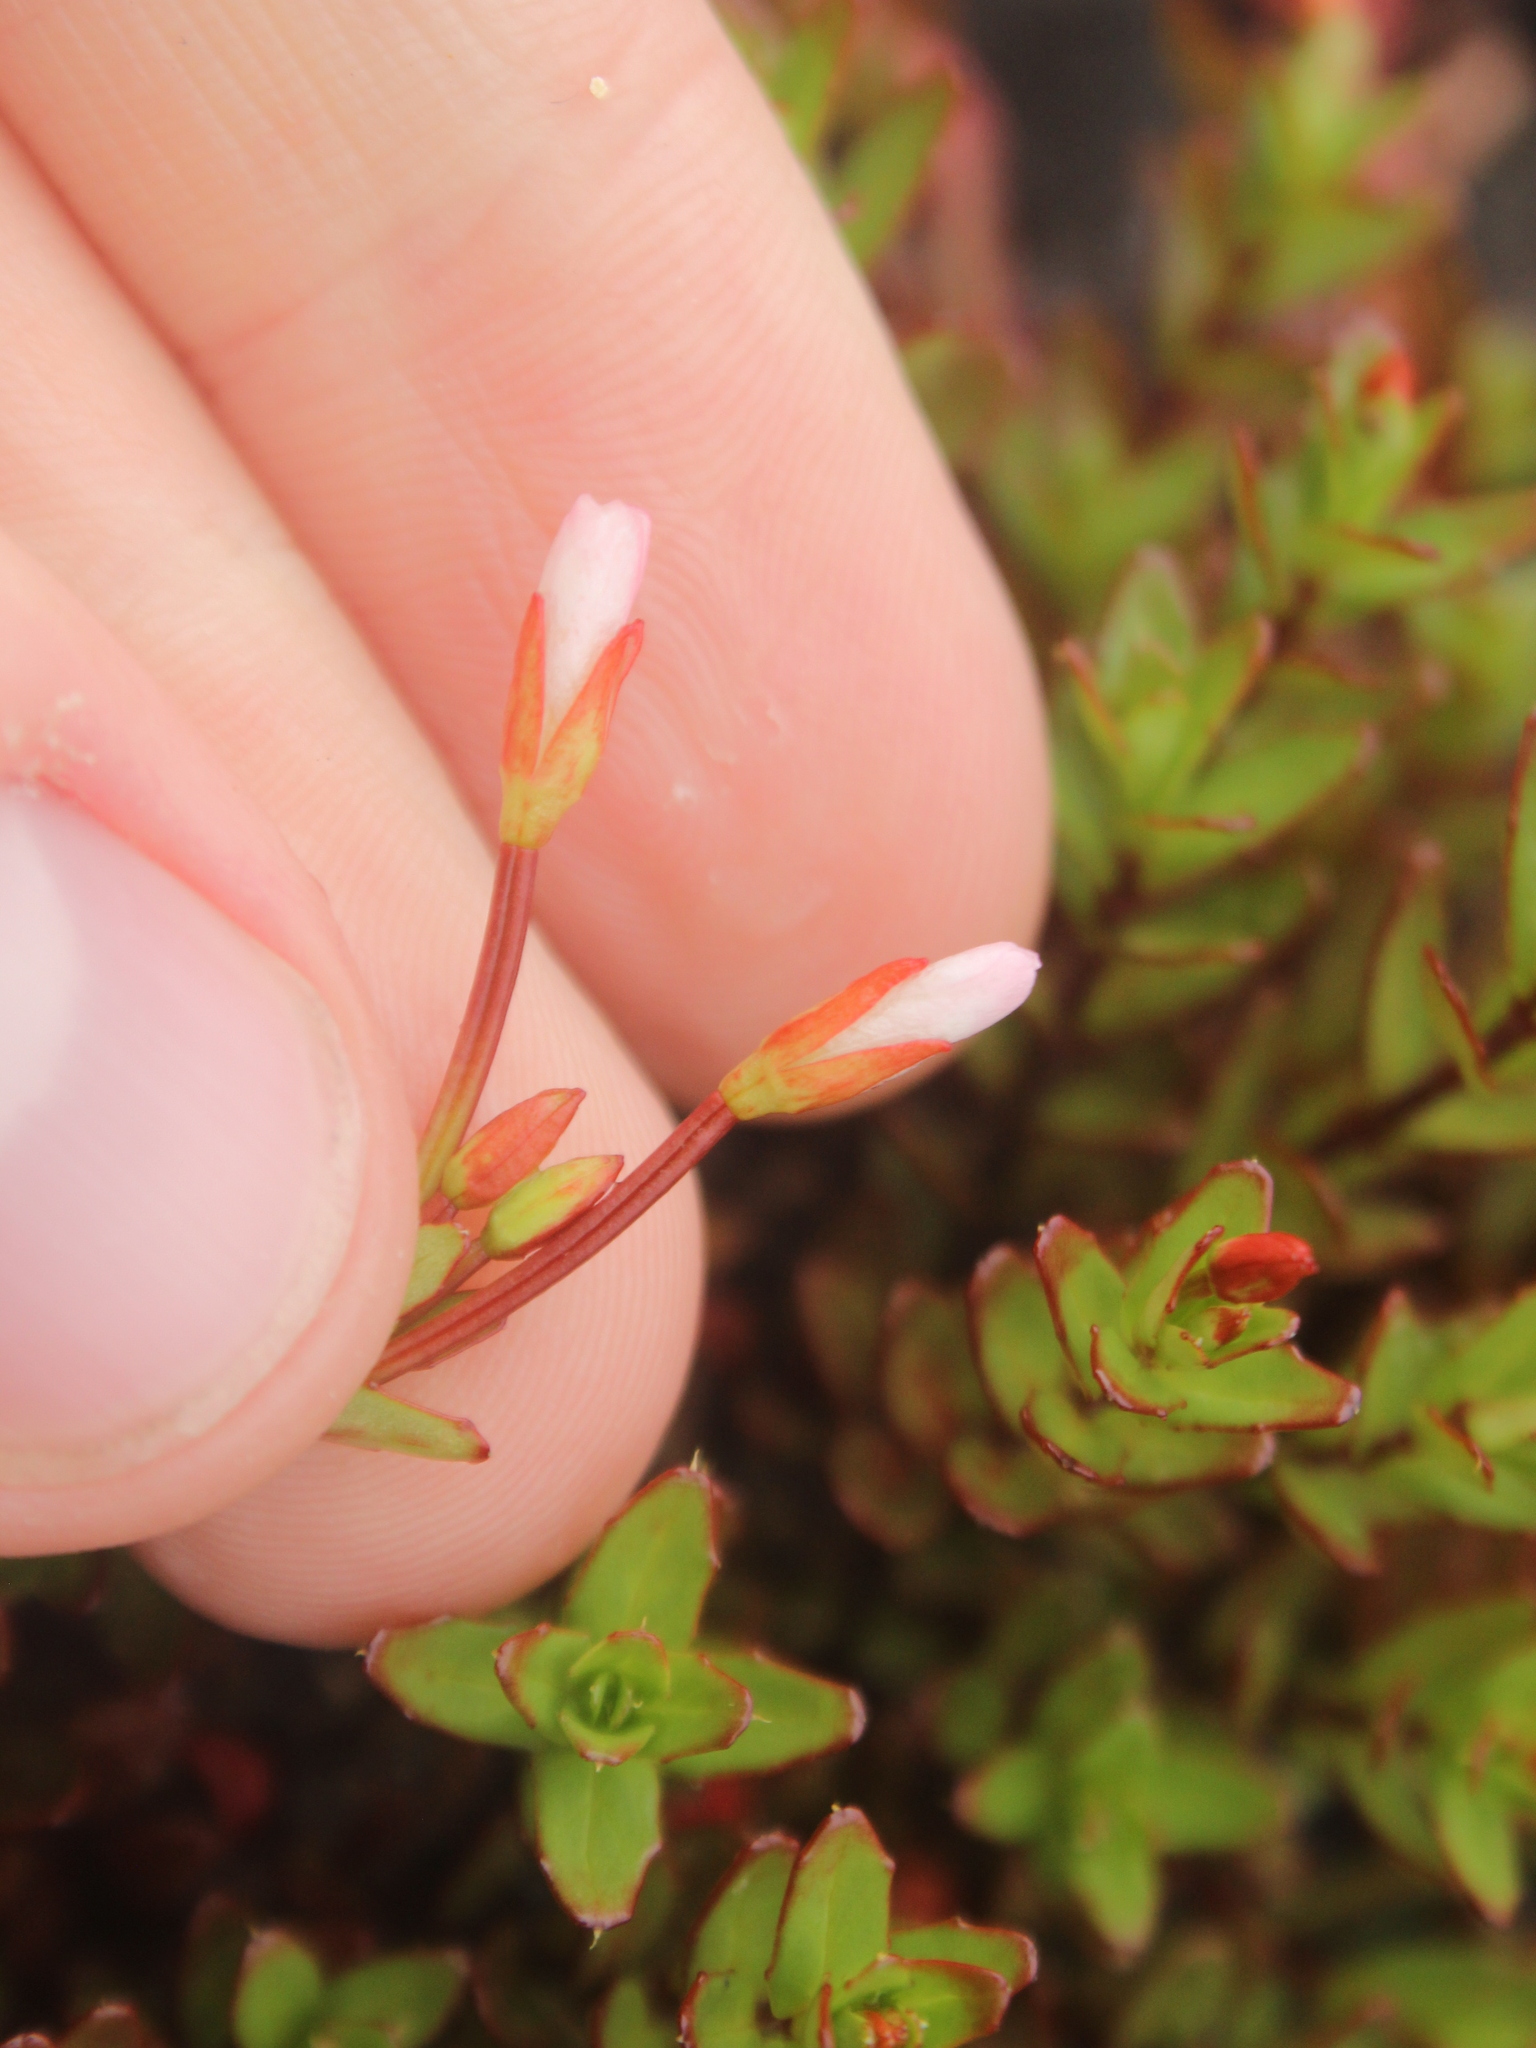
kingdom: Plantae
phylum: Tracheophyta
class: Magnoliopsida
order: Myrtales
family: Onagraceae
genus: Epilobium
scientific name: Epilobium glabellum
